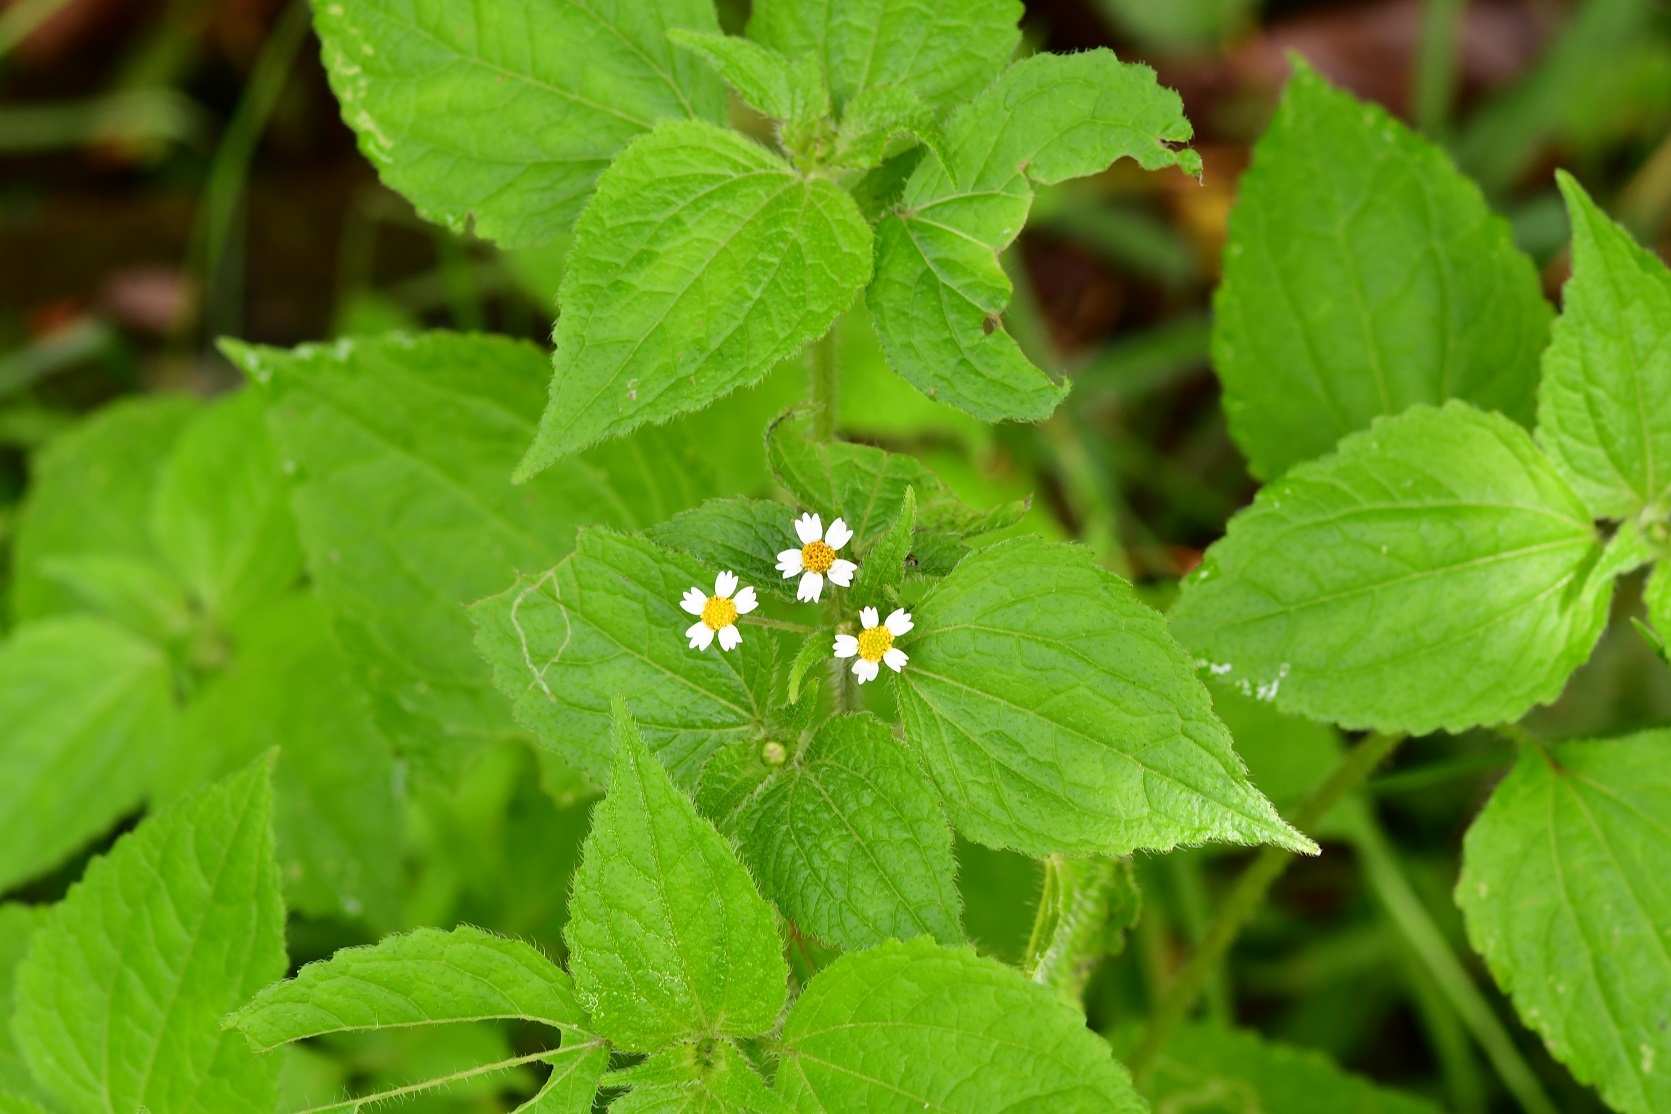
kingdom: Plantae
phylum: Tracheophyta
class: Magnoliopsida
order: Asterales
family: Asteraceae
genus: Galinsoga
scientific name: Galinsoga quadriradiata
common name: Shaggy soldier
